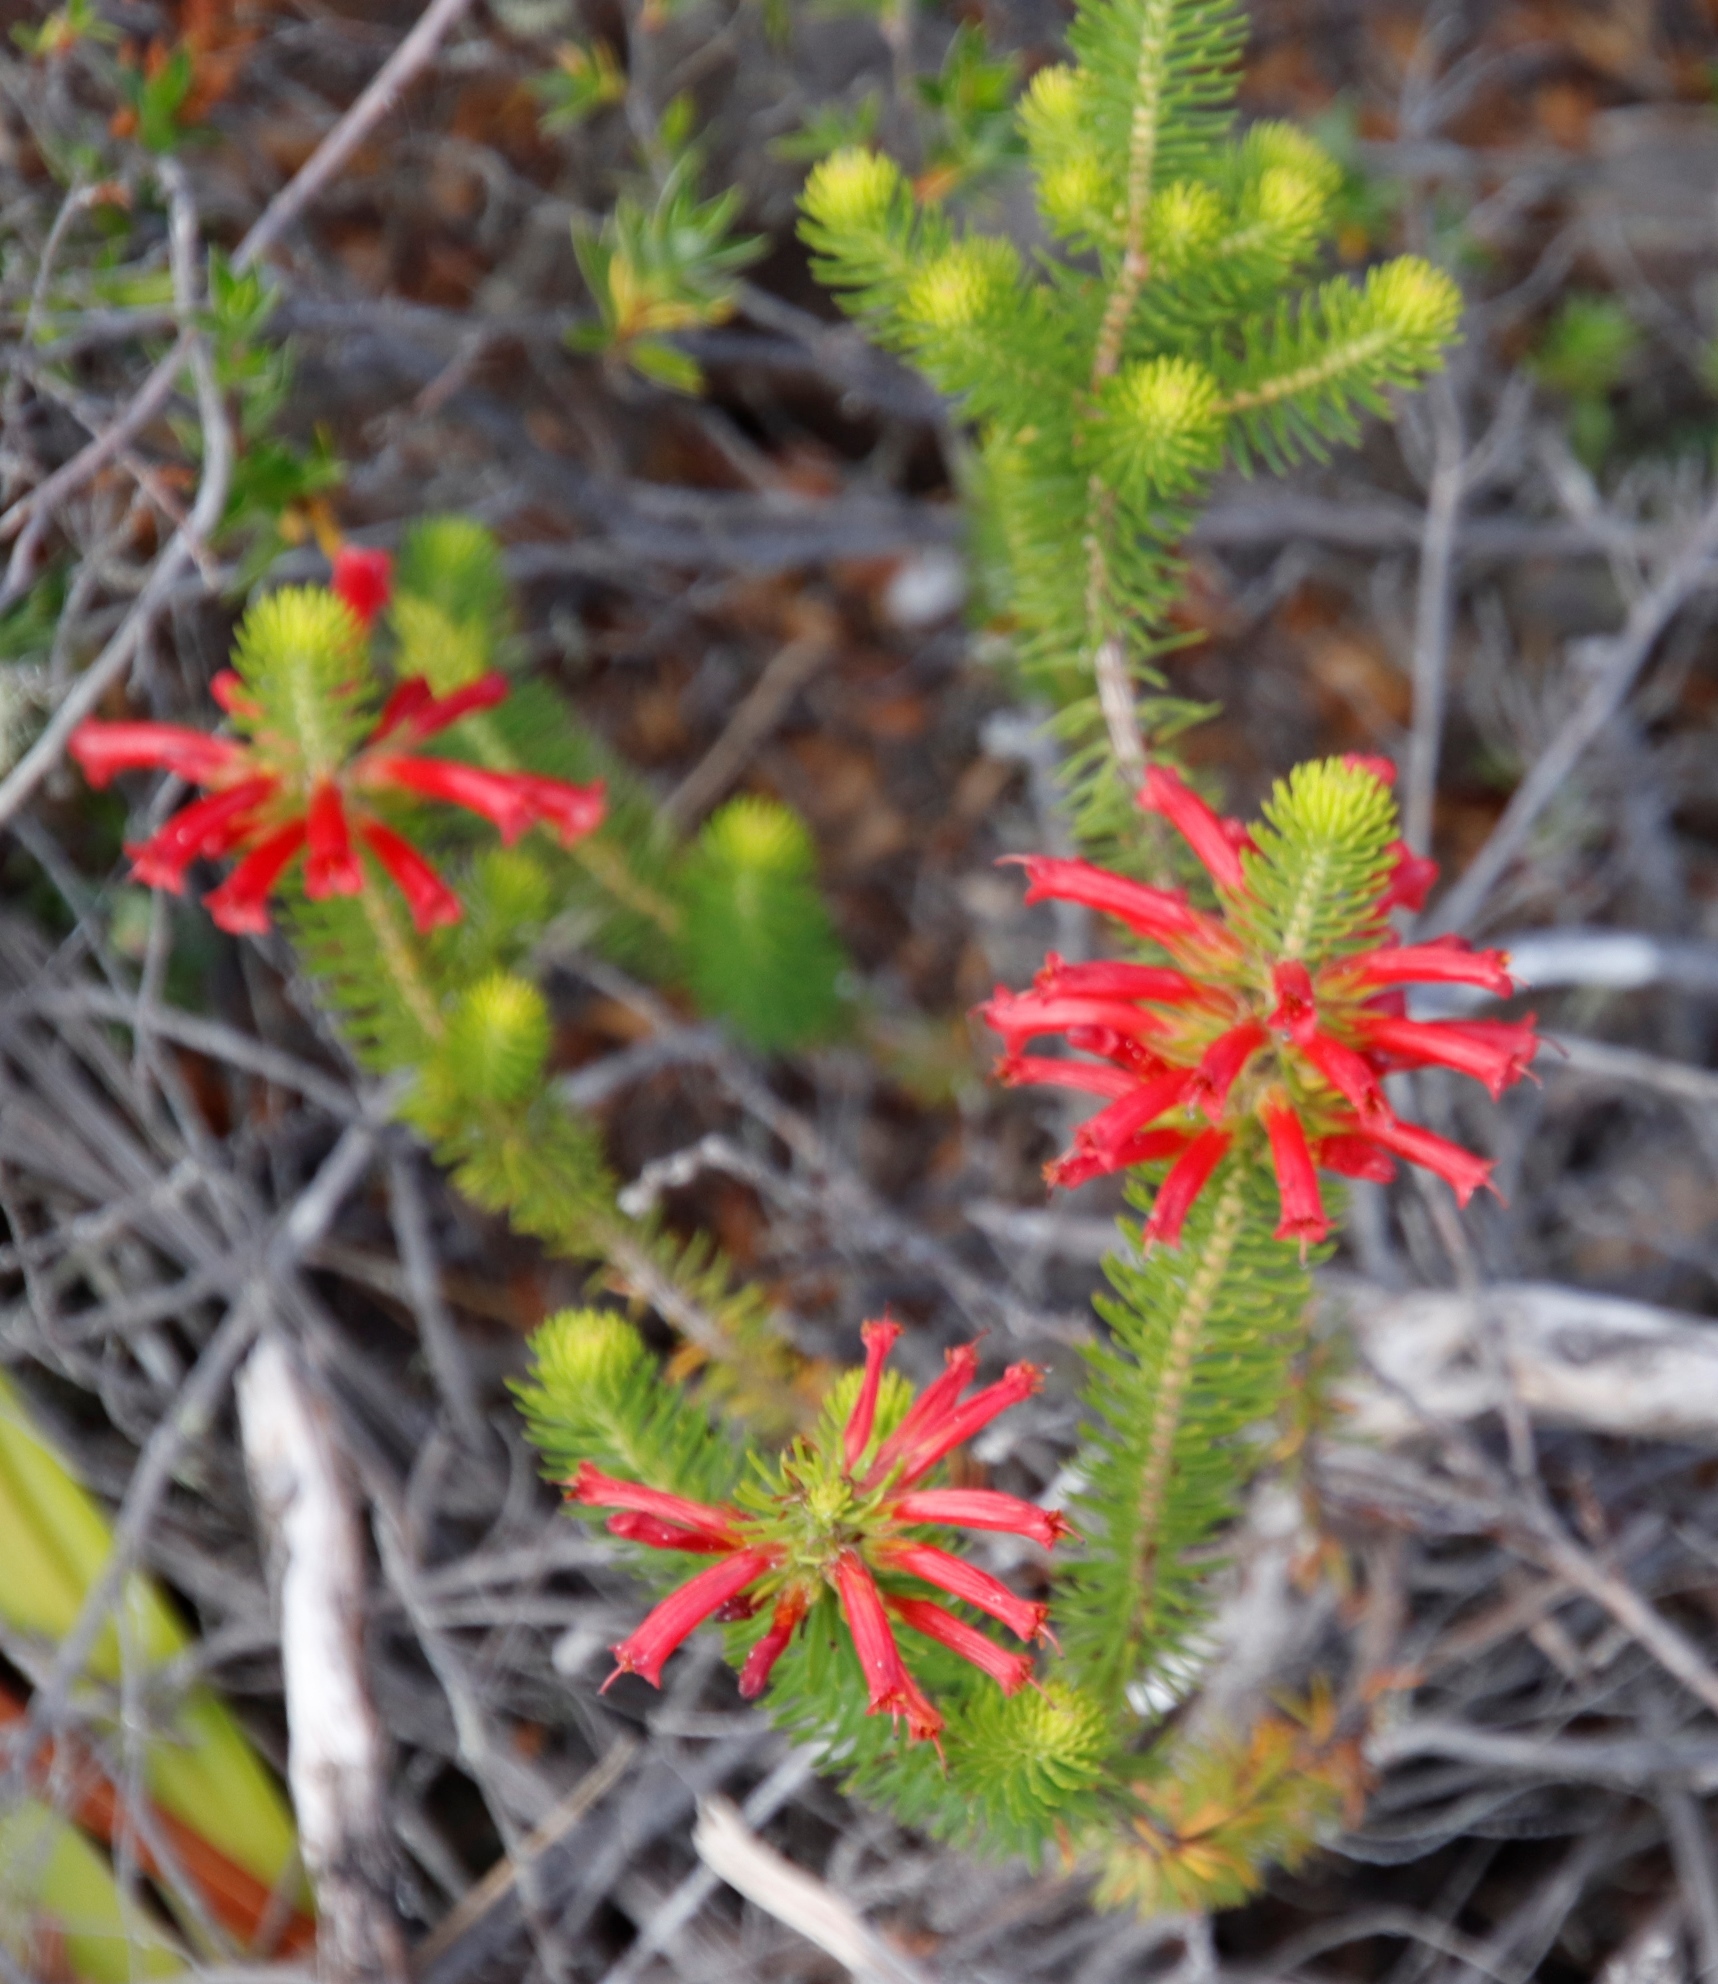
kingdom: Plantae
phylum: Tracheophyta
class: Magnoliopsida
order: Ericales
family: Ericaceae
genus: Erica
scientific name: Erica abietina
